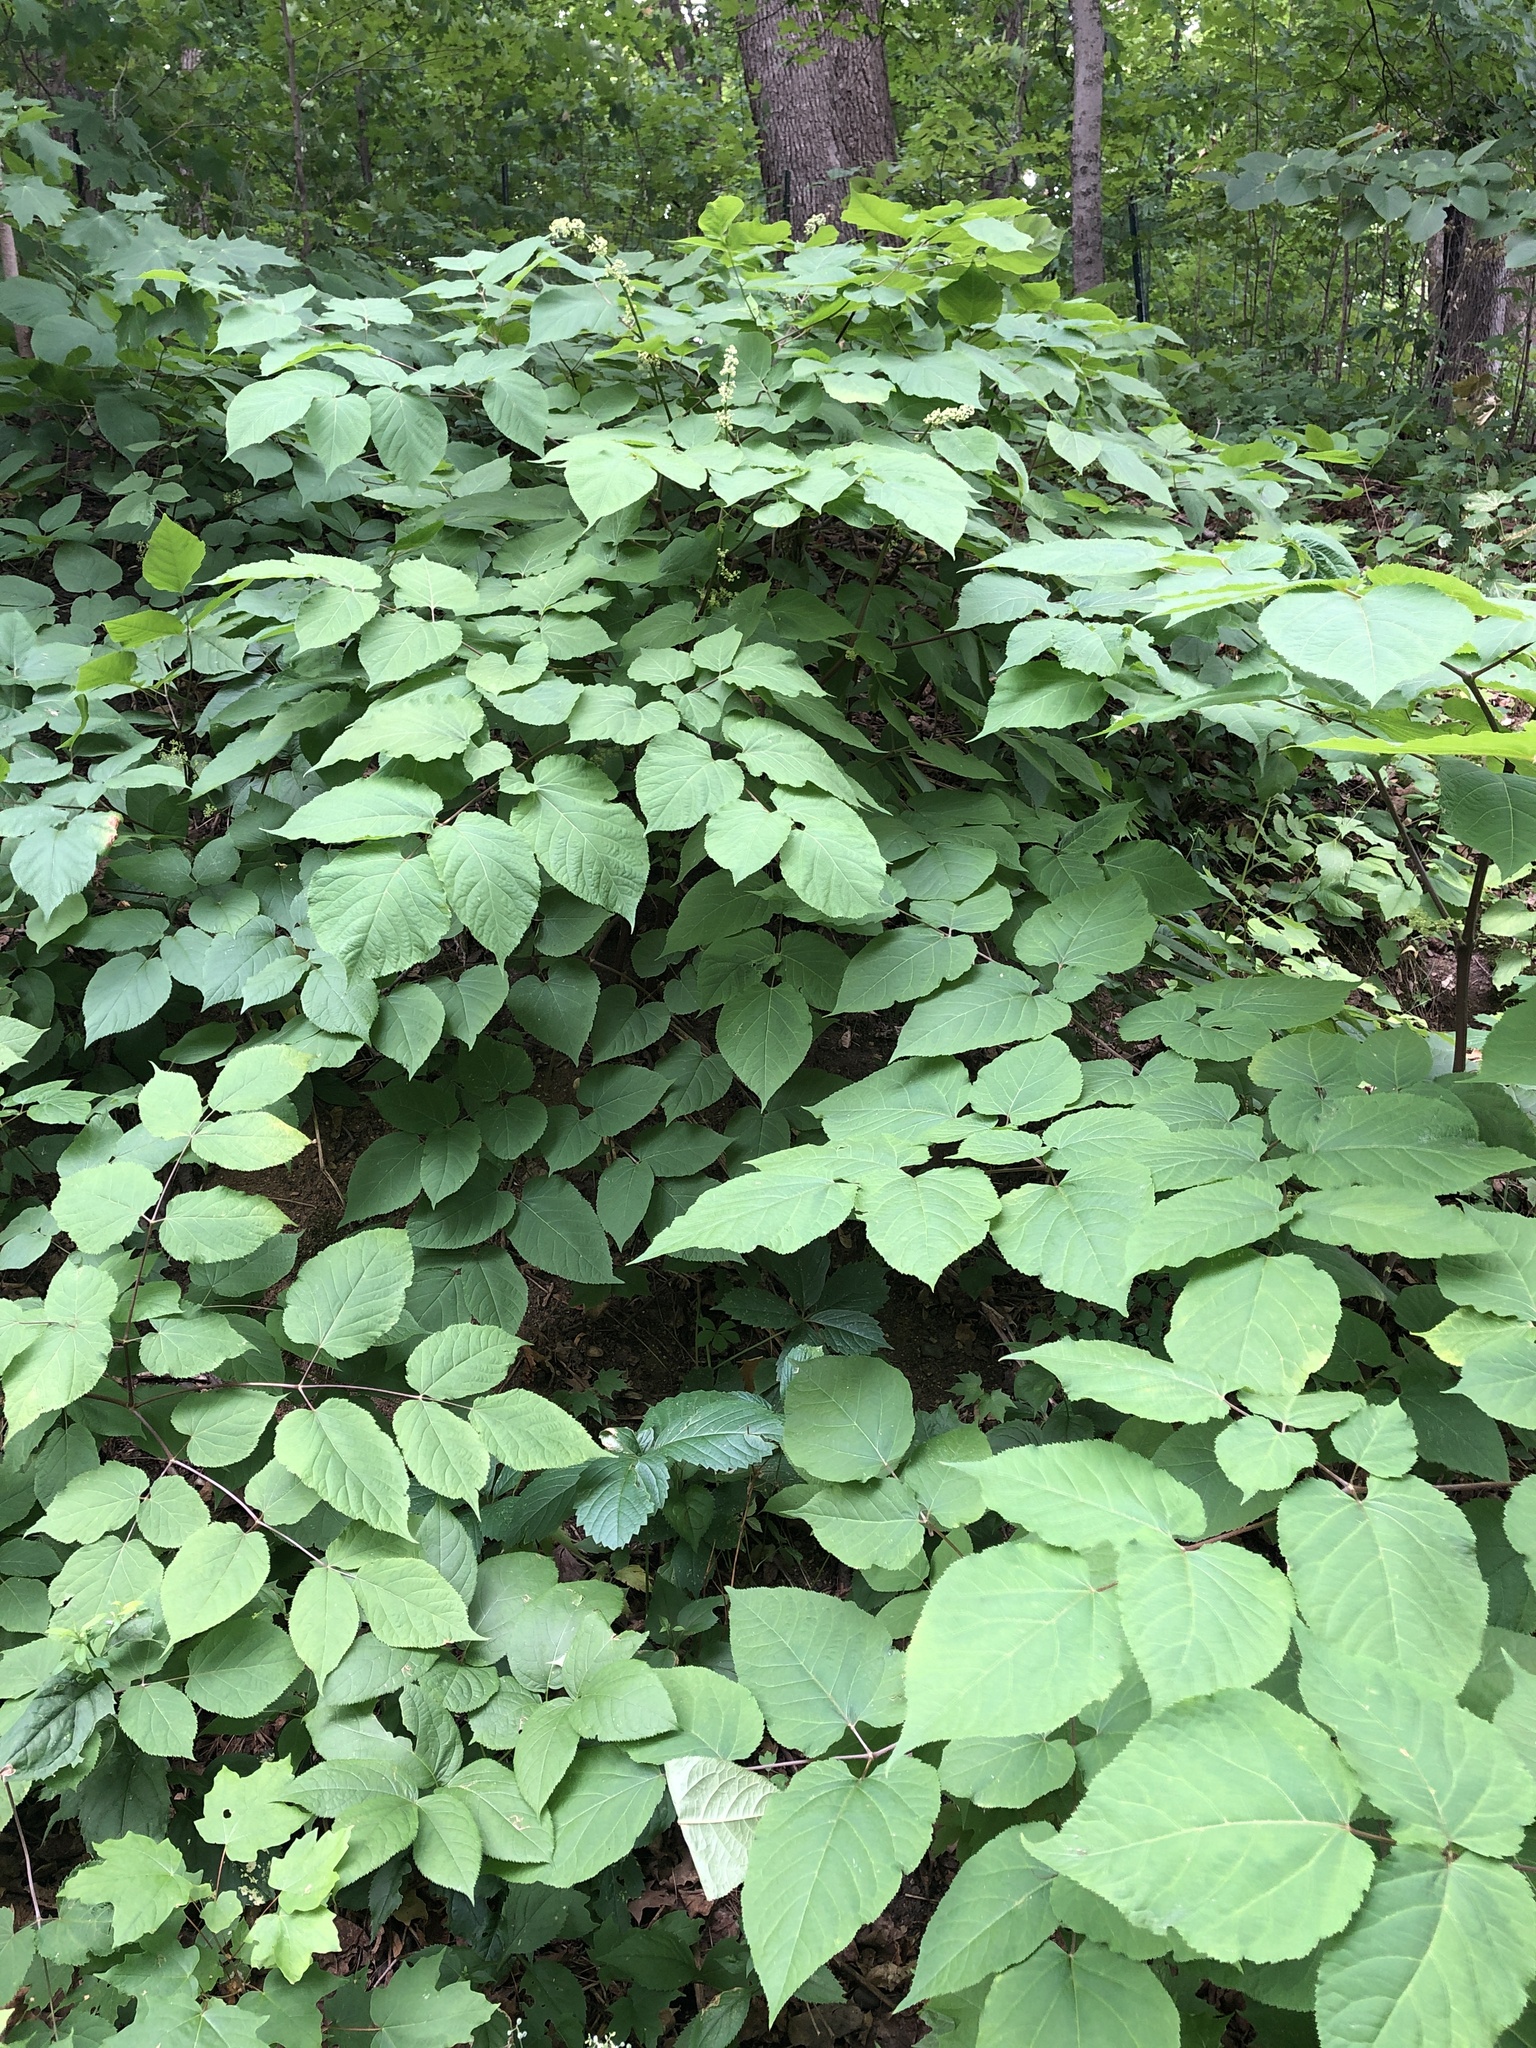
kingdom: Plantae
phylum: Tracheophyta
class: Magnoliopsida
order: Apiales
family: Araliaceae
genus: Aralia
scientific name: Aralia racemosa
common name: American-spikenard
